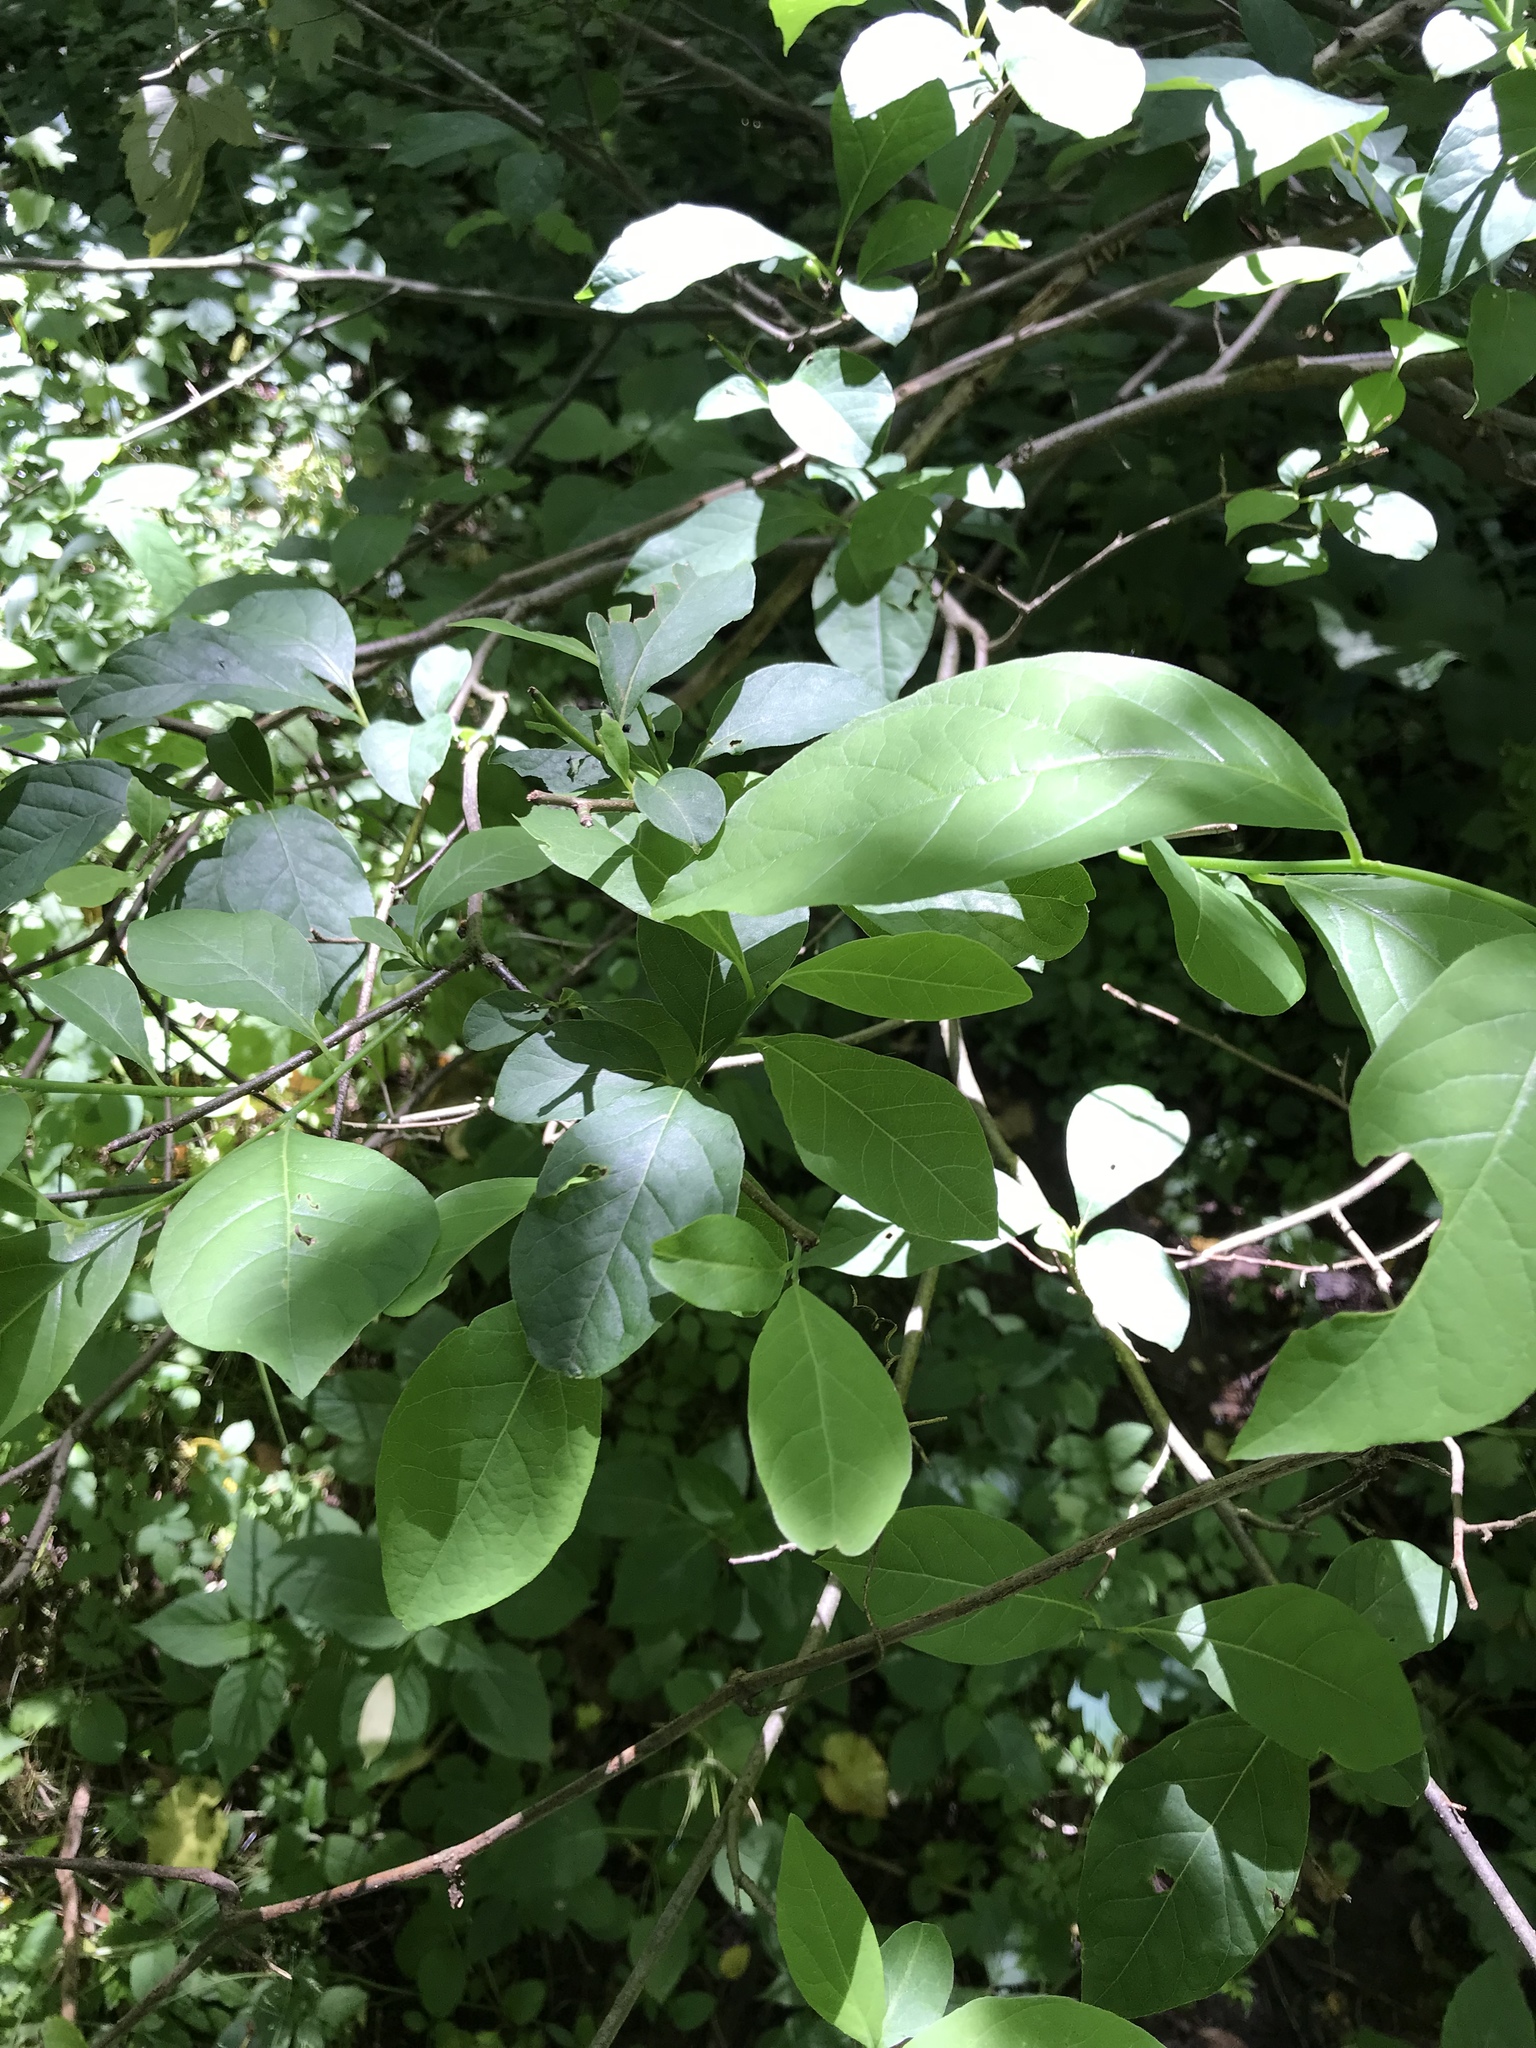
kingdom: Plantae
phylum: Tracheophyta
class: Magnoliopsida
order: Laurales
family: Lauraceae
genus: Lindera
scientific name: Lindera benzoin
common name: Spicebush
